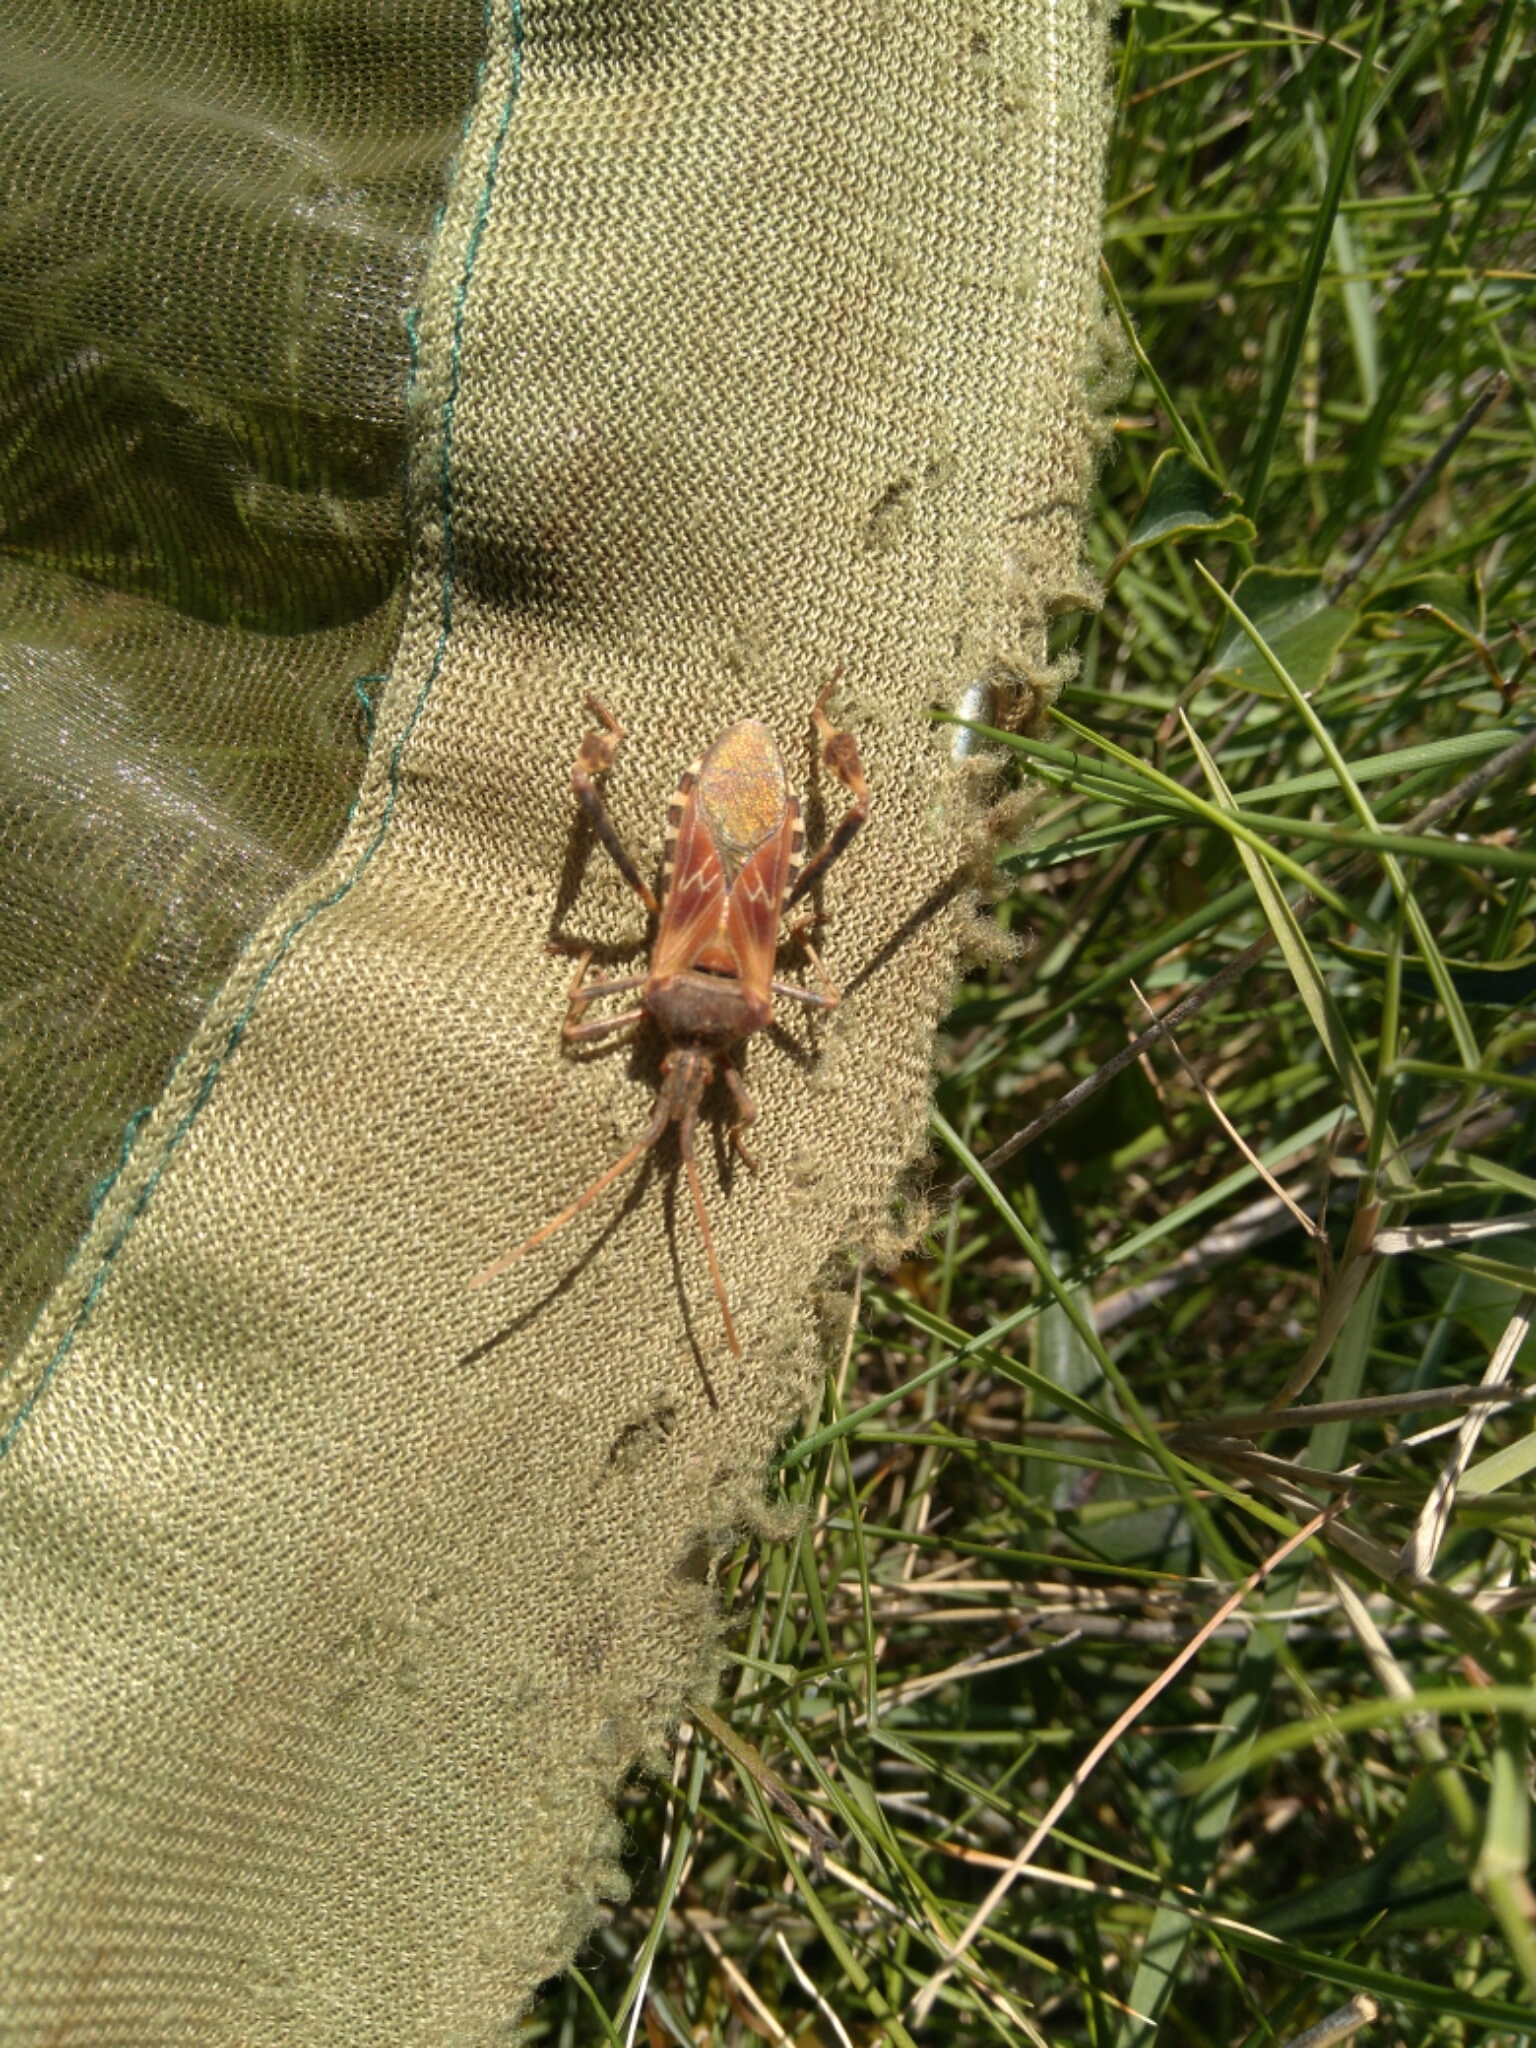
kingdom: Animalia
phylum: Arthropoda
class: Insecta
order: Hemiptera
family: Coreidae
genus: Leptoglossus
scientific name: Leptoglossus occidentalis
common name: Western conifer-seed bug
